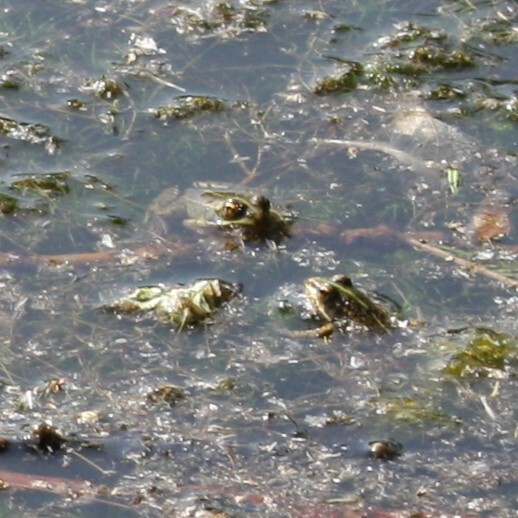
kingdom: Animalia
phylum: Chordata
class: Amphibia
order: Anura
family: Ranidae
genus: Pelophylax
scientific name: Pelophylax ridibundus
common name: Marsh frog
